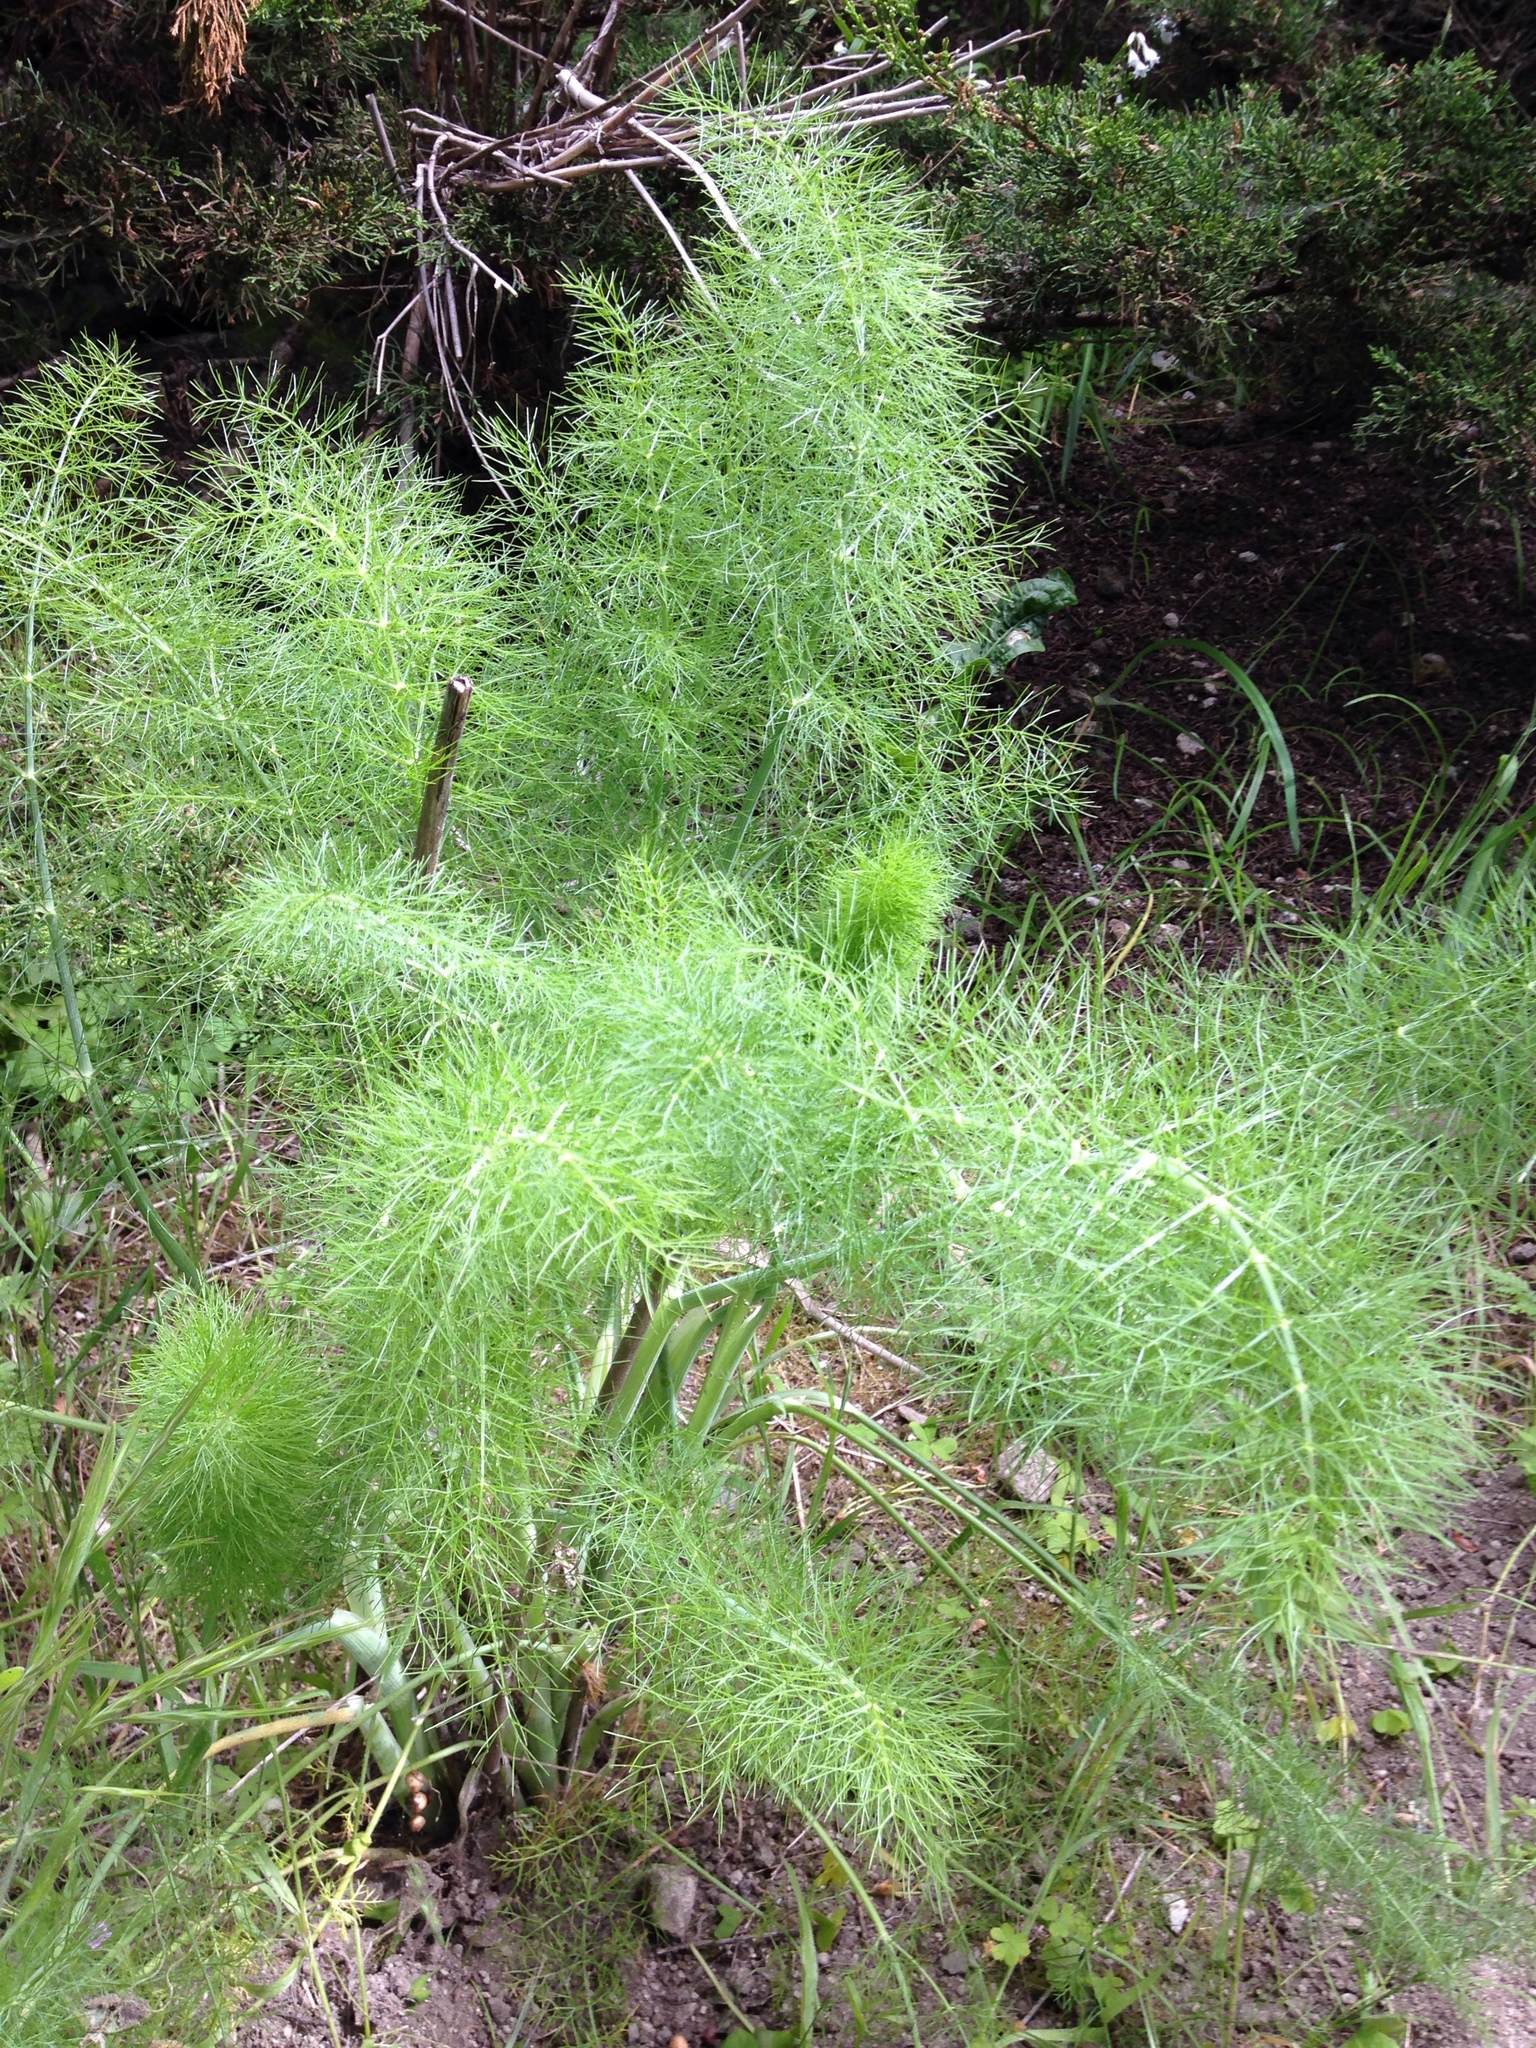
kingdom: Plantae
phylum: Tracheophyta
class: Magnoliopsida
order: Apiales
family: Apiaceae
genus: Foeniculum
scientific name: Foeniculum vulgare
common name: Fennel
